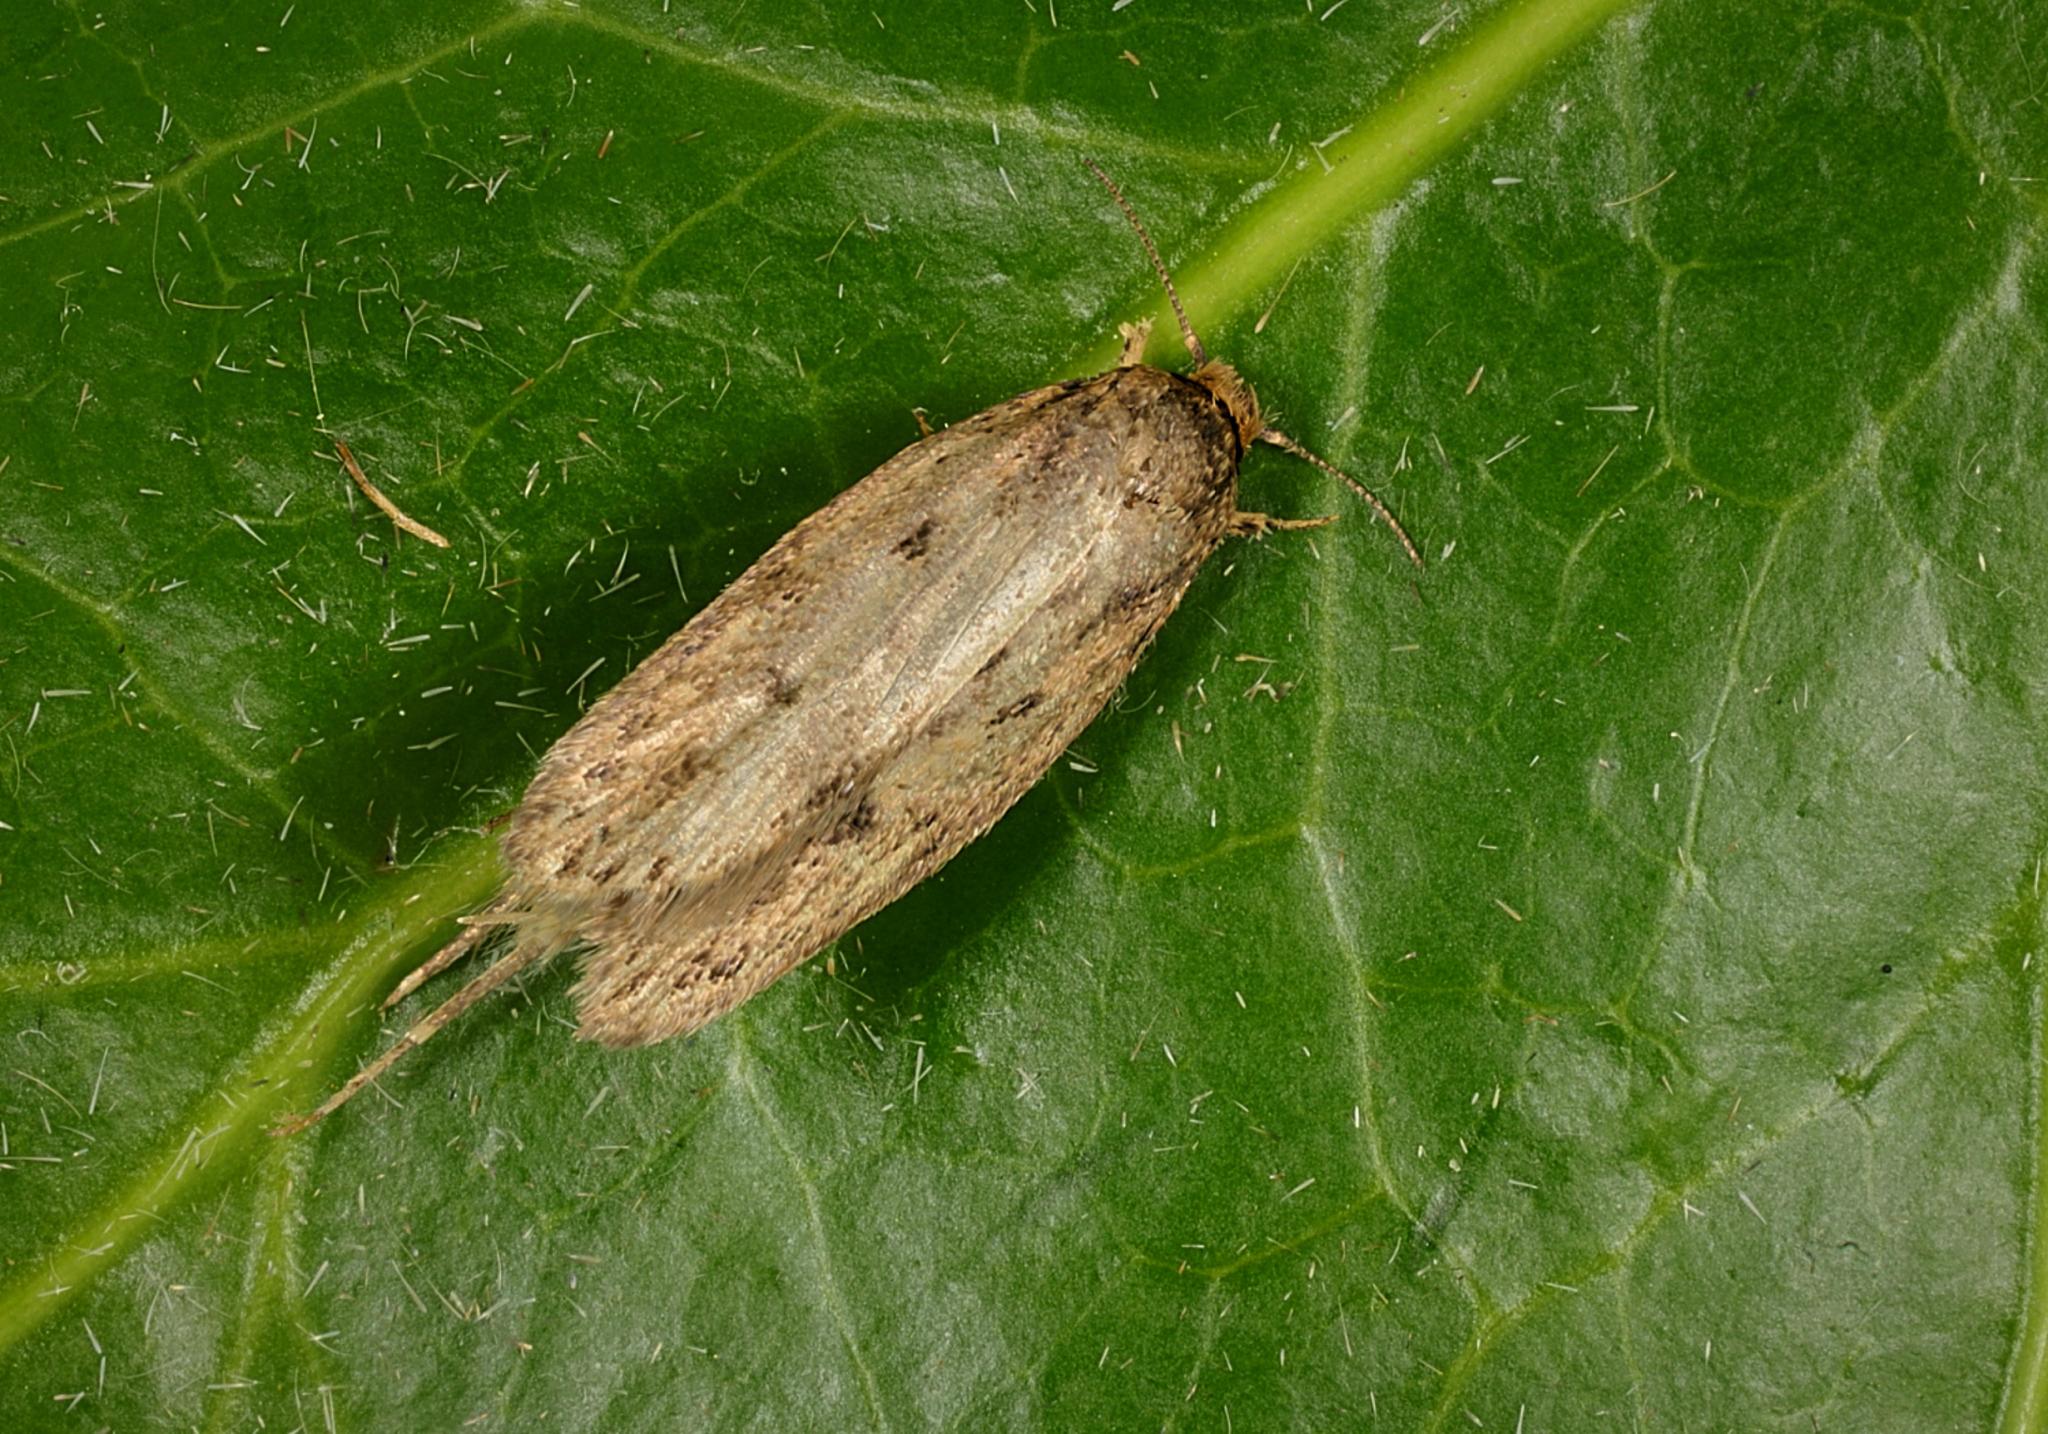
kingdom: Animalia
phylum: Arthropoda
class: Insecta
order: Lepidoptera
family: Oecophoridae
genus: Hofmannophila
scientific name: Hofmannophila pseudospretella
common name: Brown house moth
